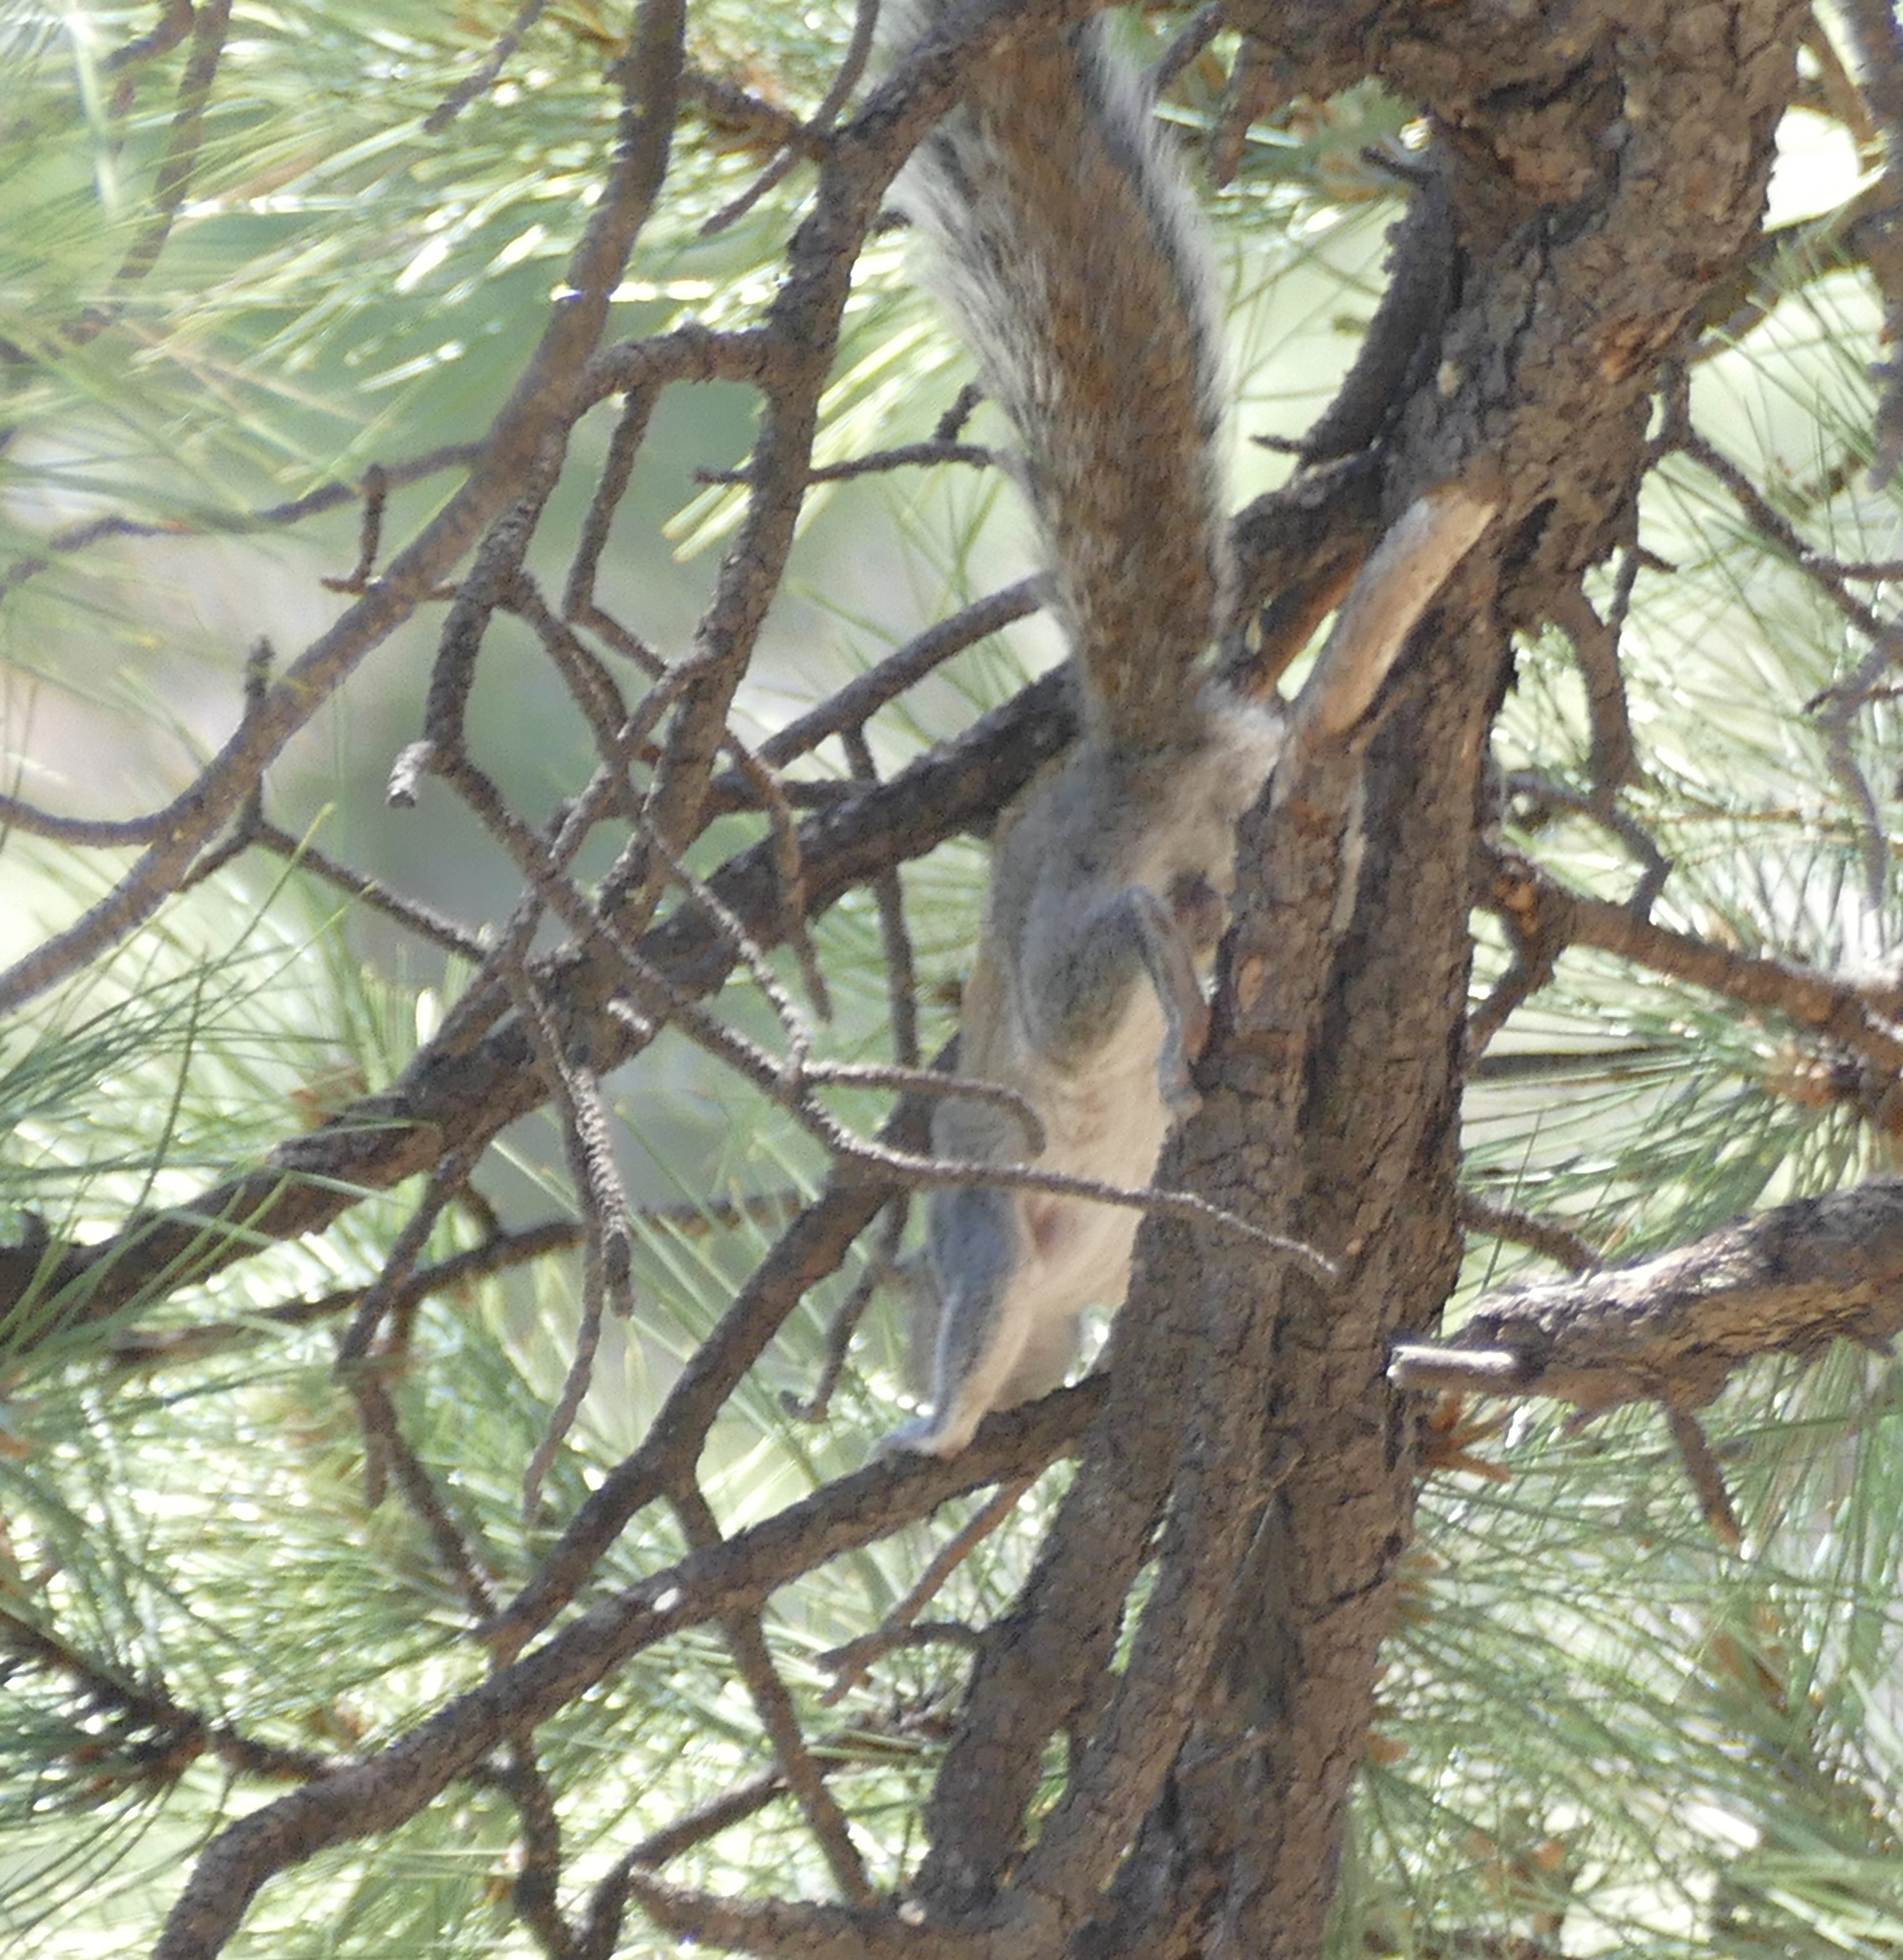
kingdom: Animalia
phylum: Chordata
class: Mammalia
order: Rodentia
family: Sciuridae
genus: Sciurus
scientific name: Sciurus arizonensis
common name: Arizona gray squirrel
